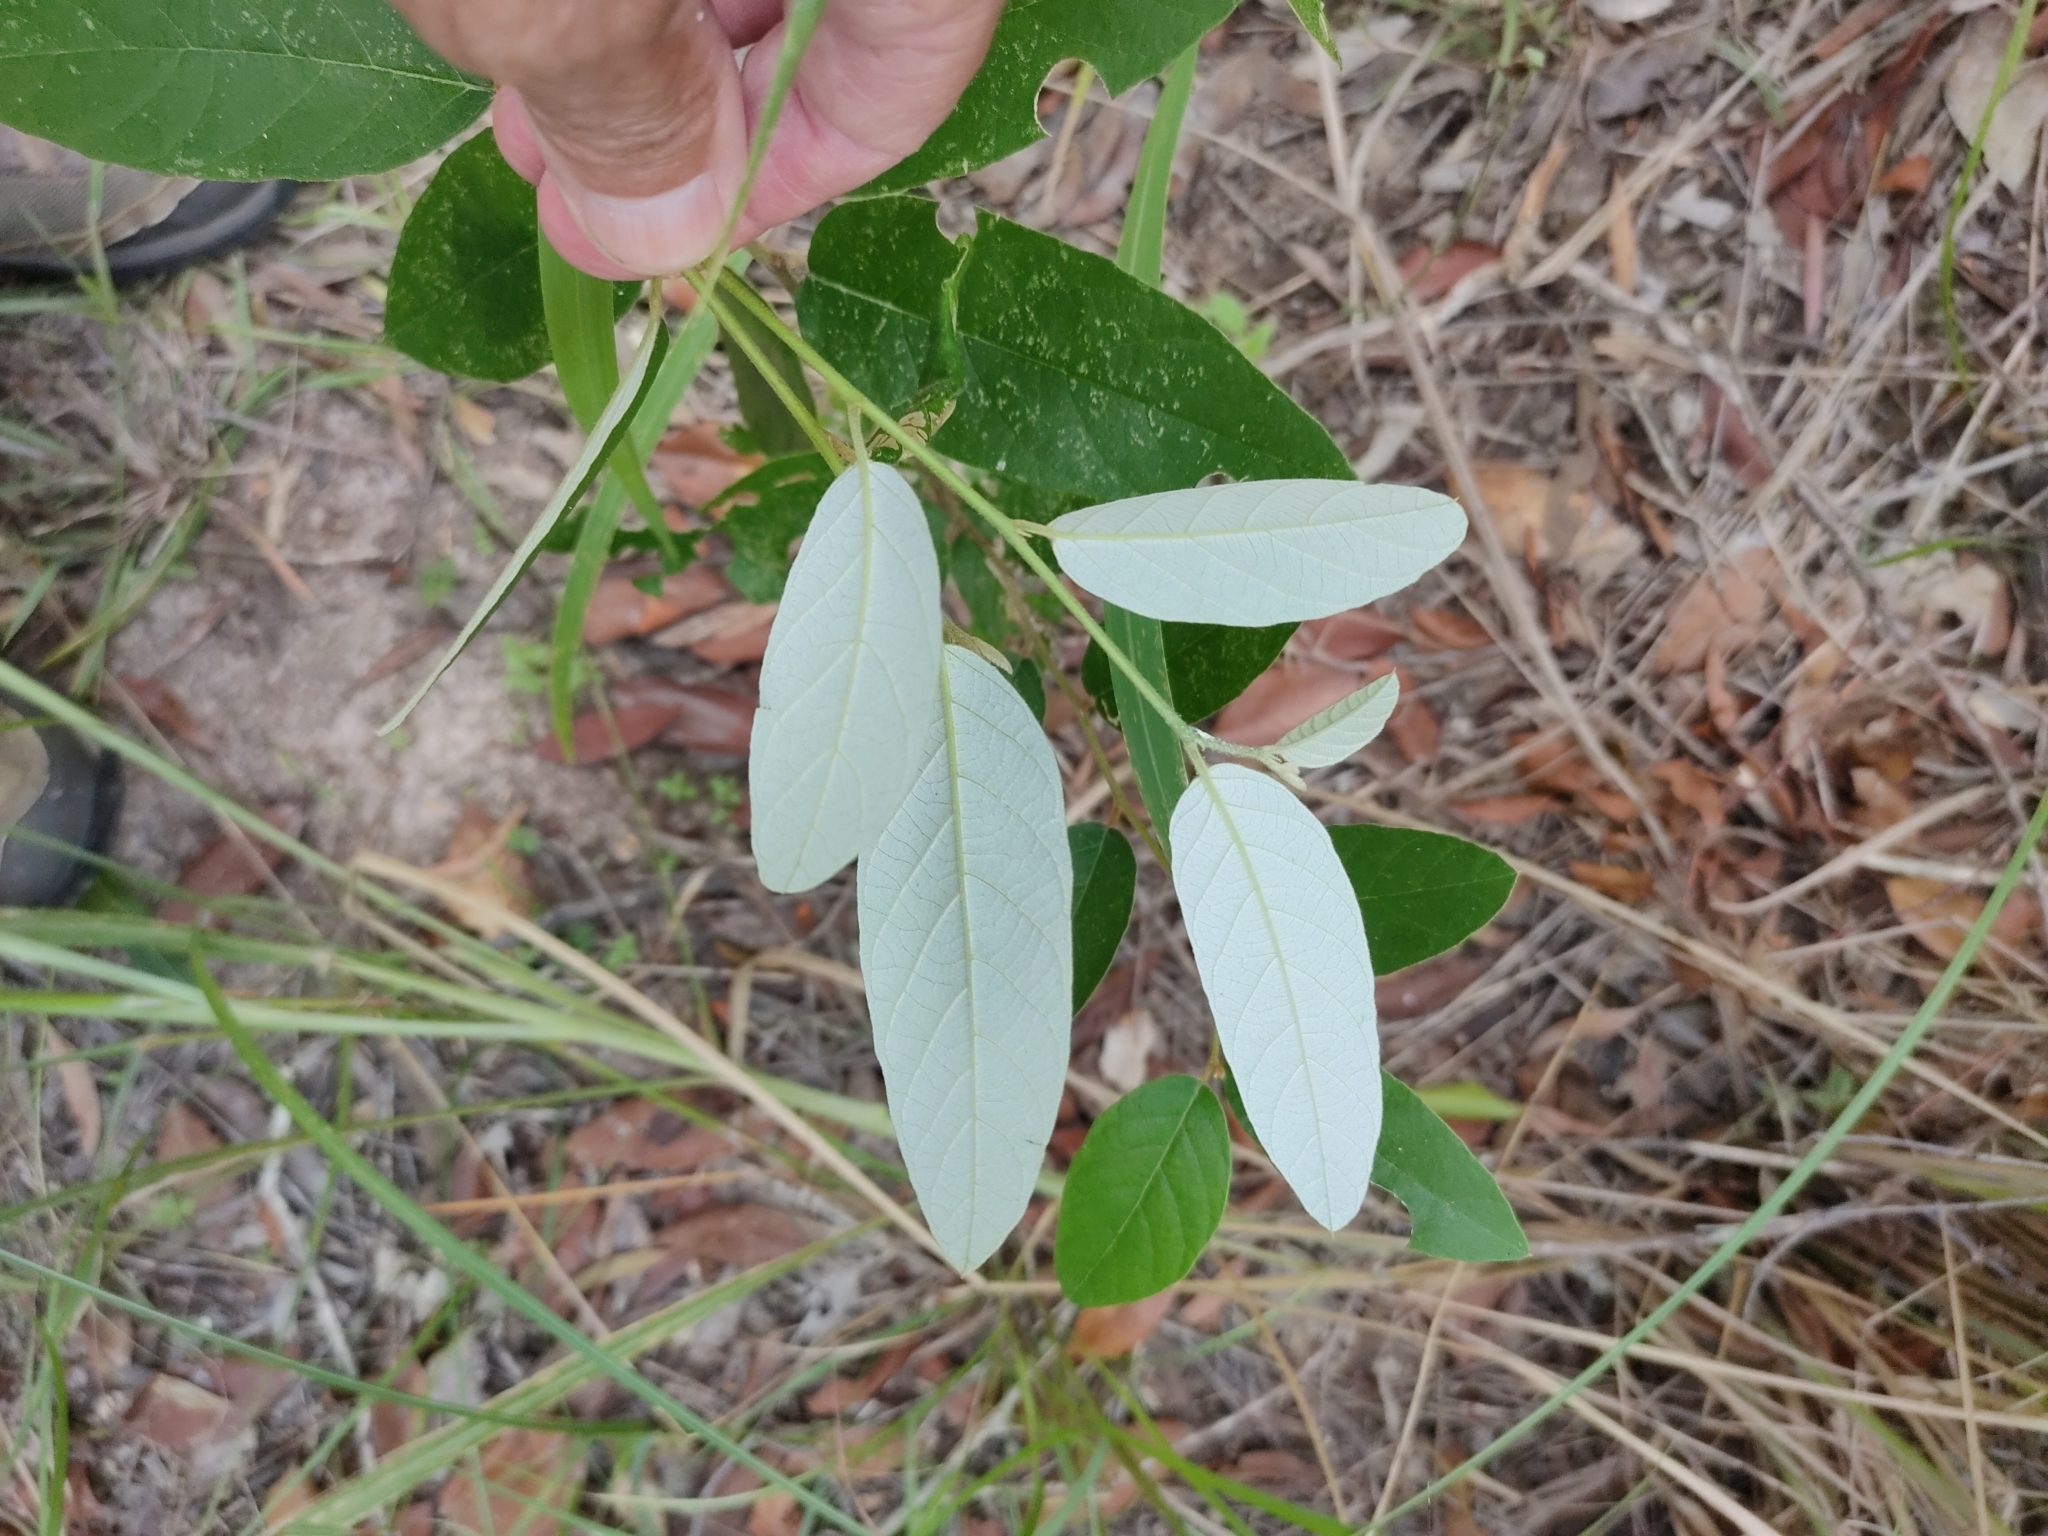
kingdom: Plantae
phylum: Tracheophyta
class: Magnoliopsida
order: Rosales
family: Rhamnaceae
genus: Alphitonia
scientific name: Alphitonia excelsa
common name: Red ash
